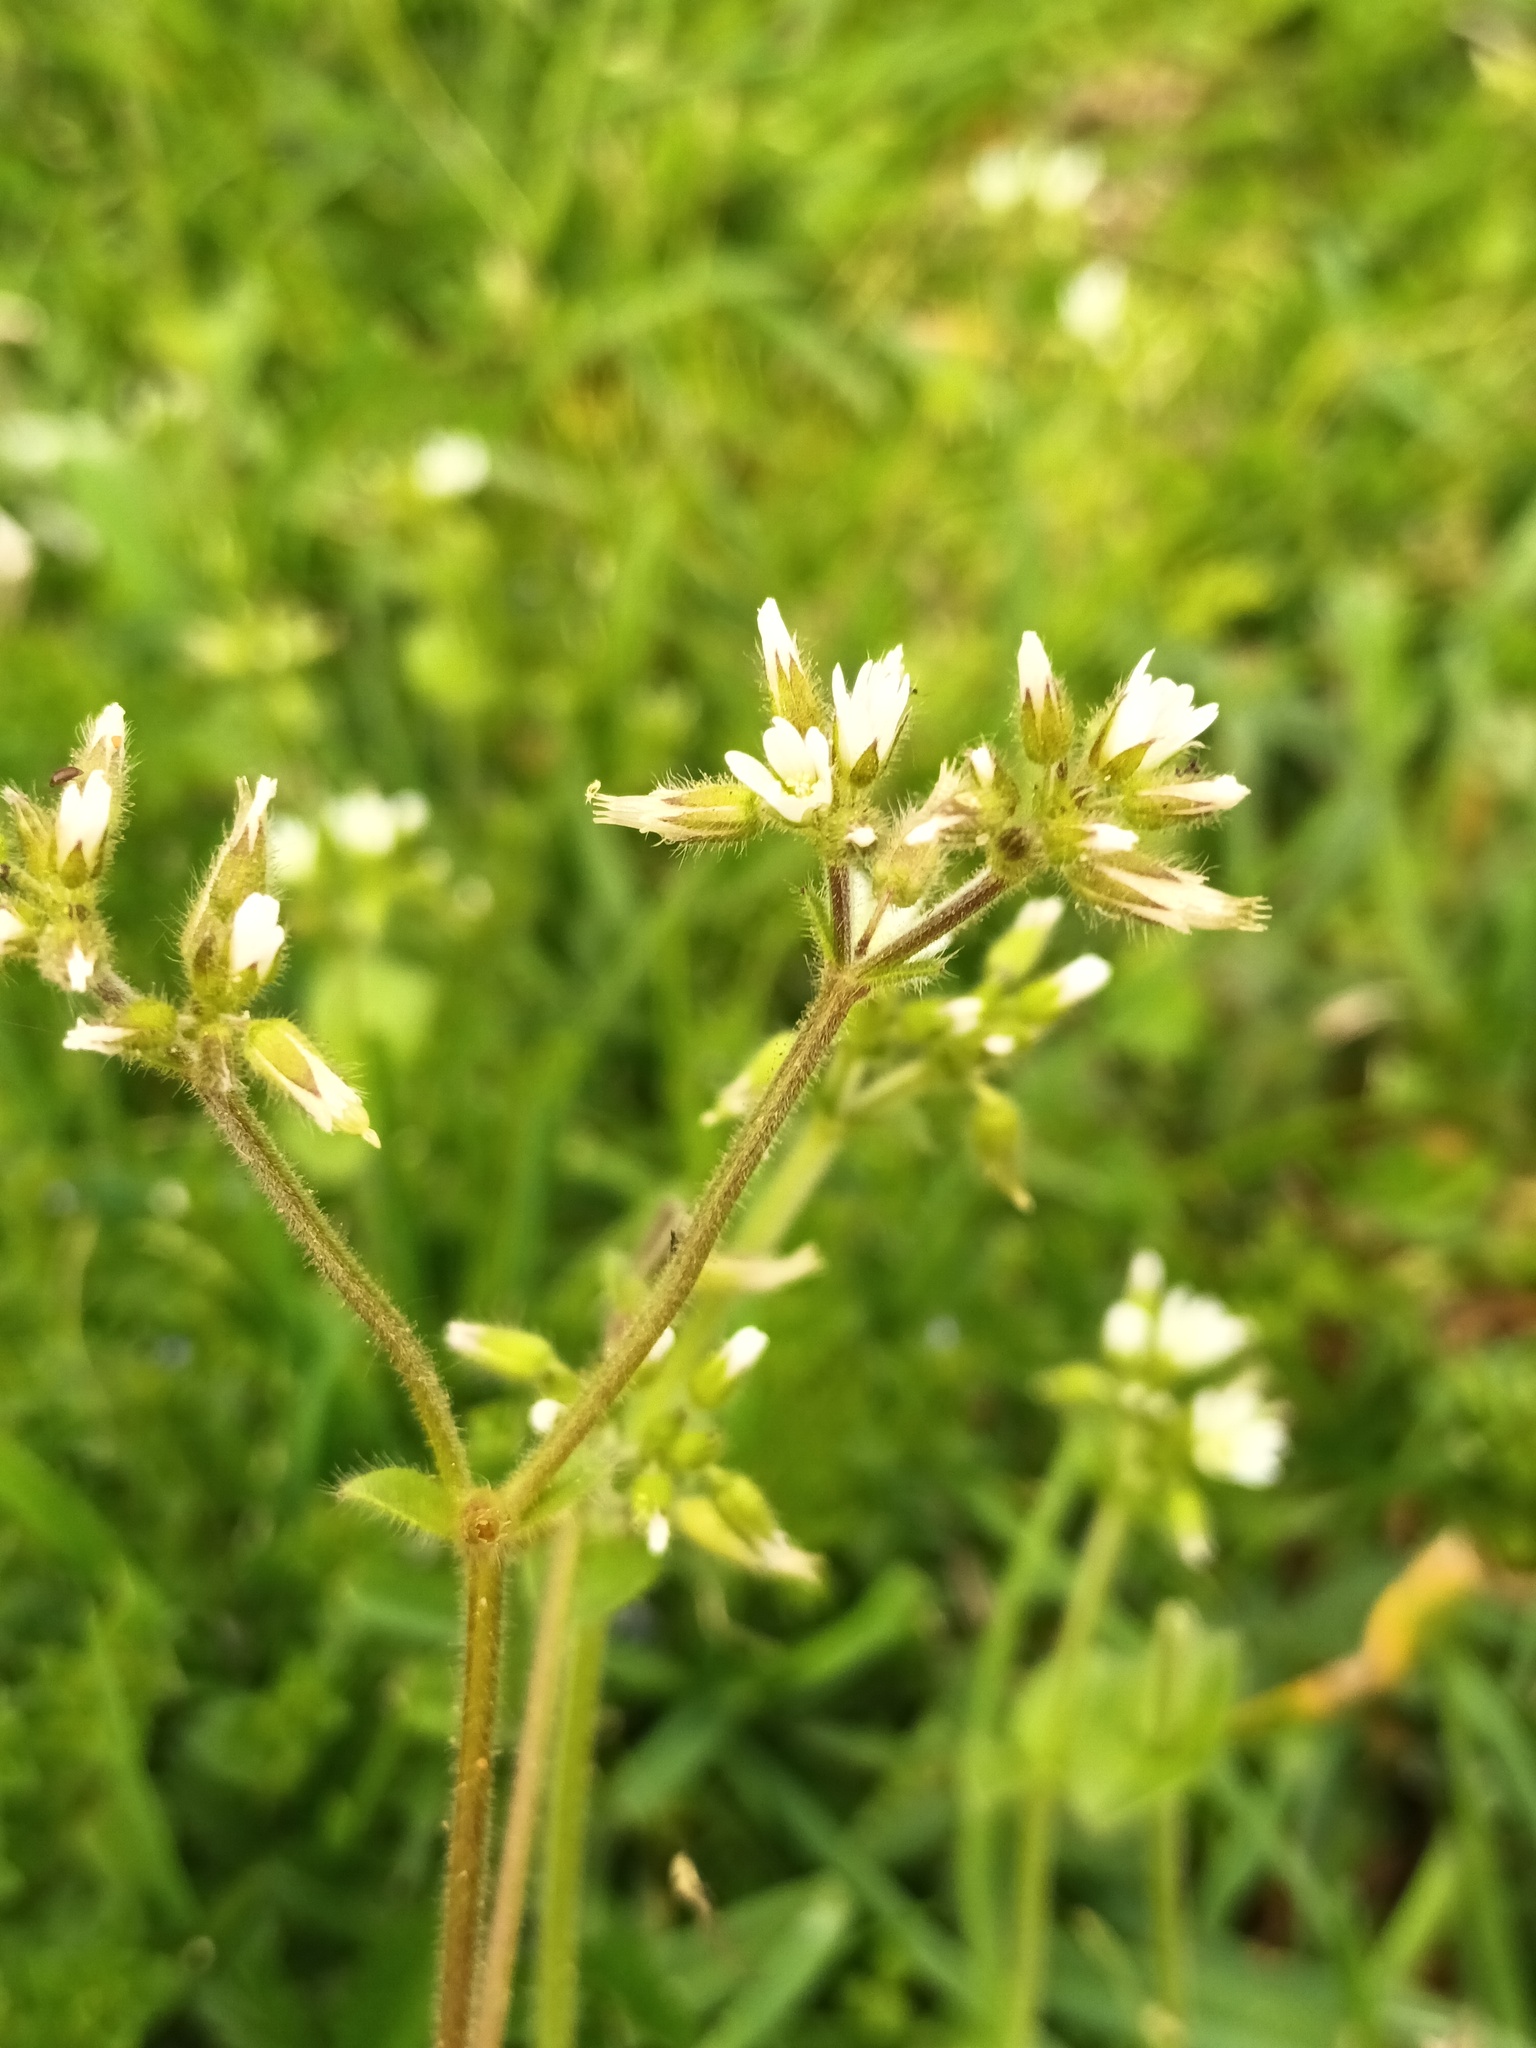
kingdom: Plantae
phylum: Tracheophyta
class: Magnoliopsida
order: Caryophyllales
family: Caryophyllaceae
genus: Cerastium
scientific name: Cerastium glomeratum
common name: Sticky chickweed
